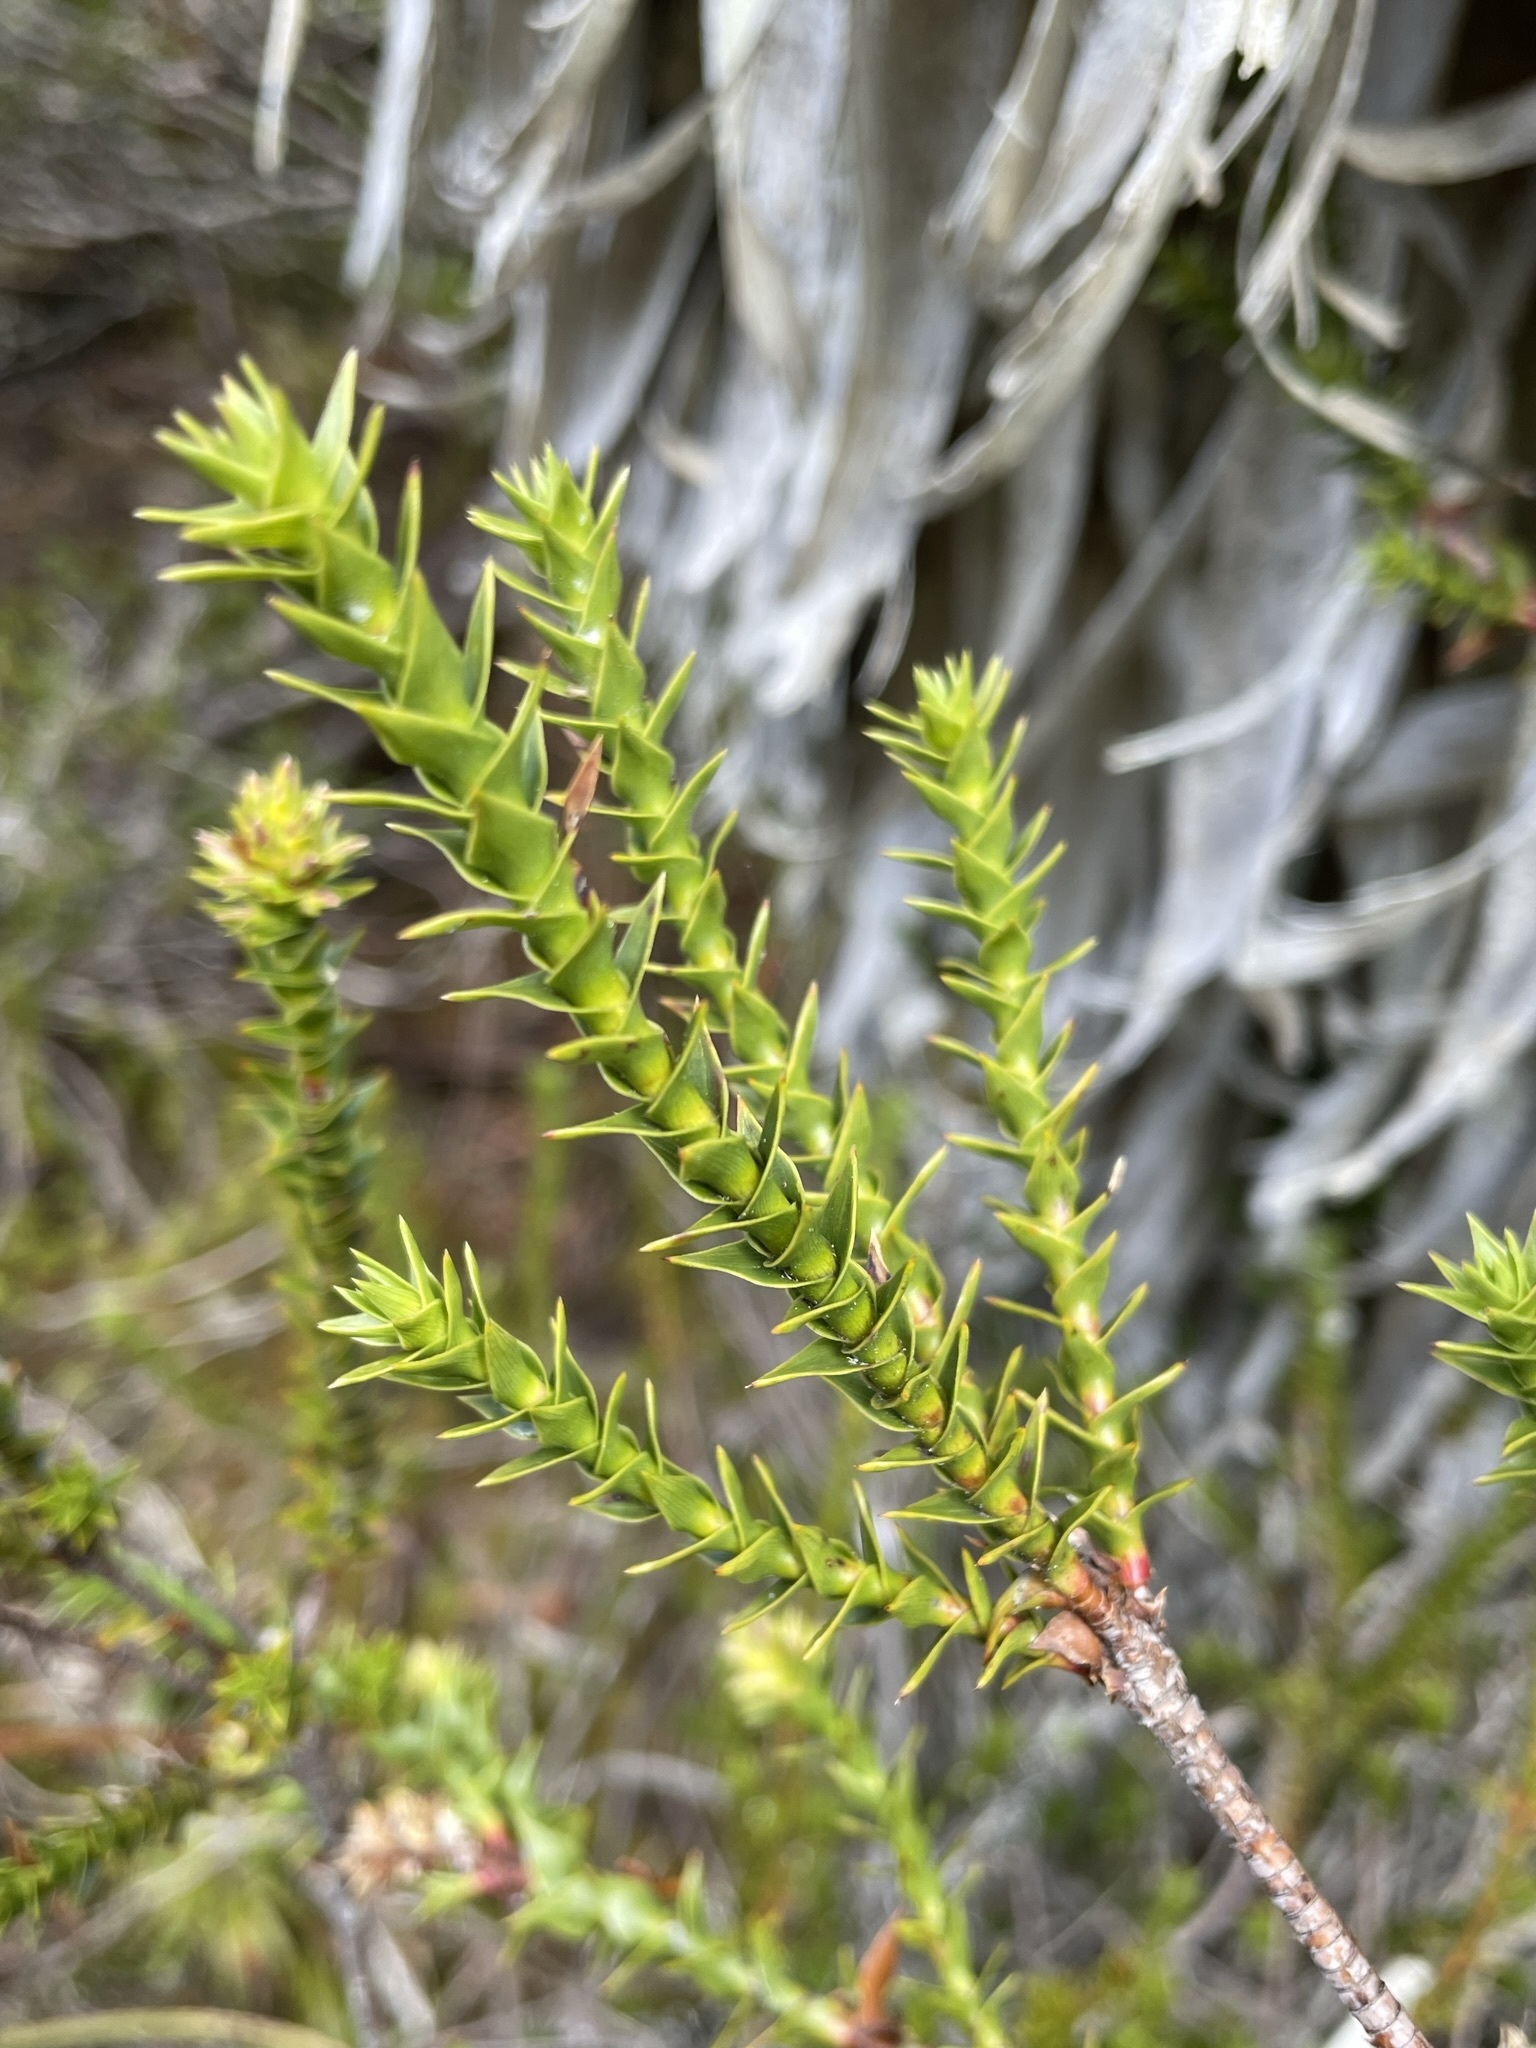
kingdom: Plantae
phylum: Tracheophyta
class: Magnoliopsida
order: Ericales
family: Ericaceae
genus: Dracophyllum
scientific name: Dracophyllum sprengelioides
